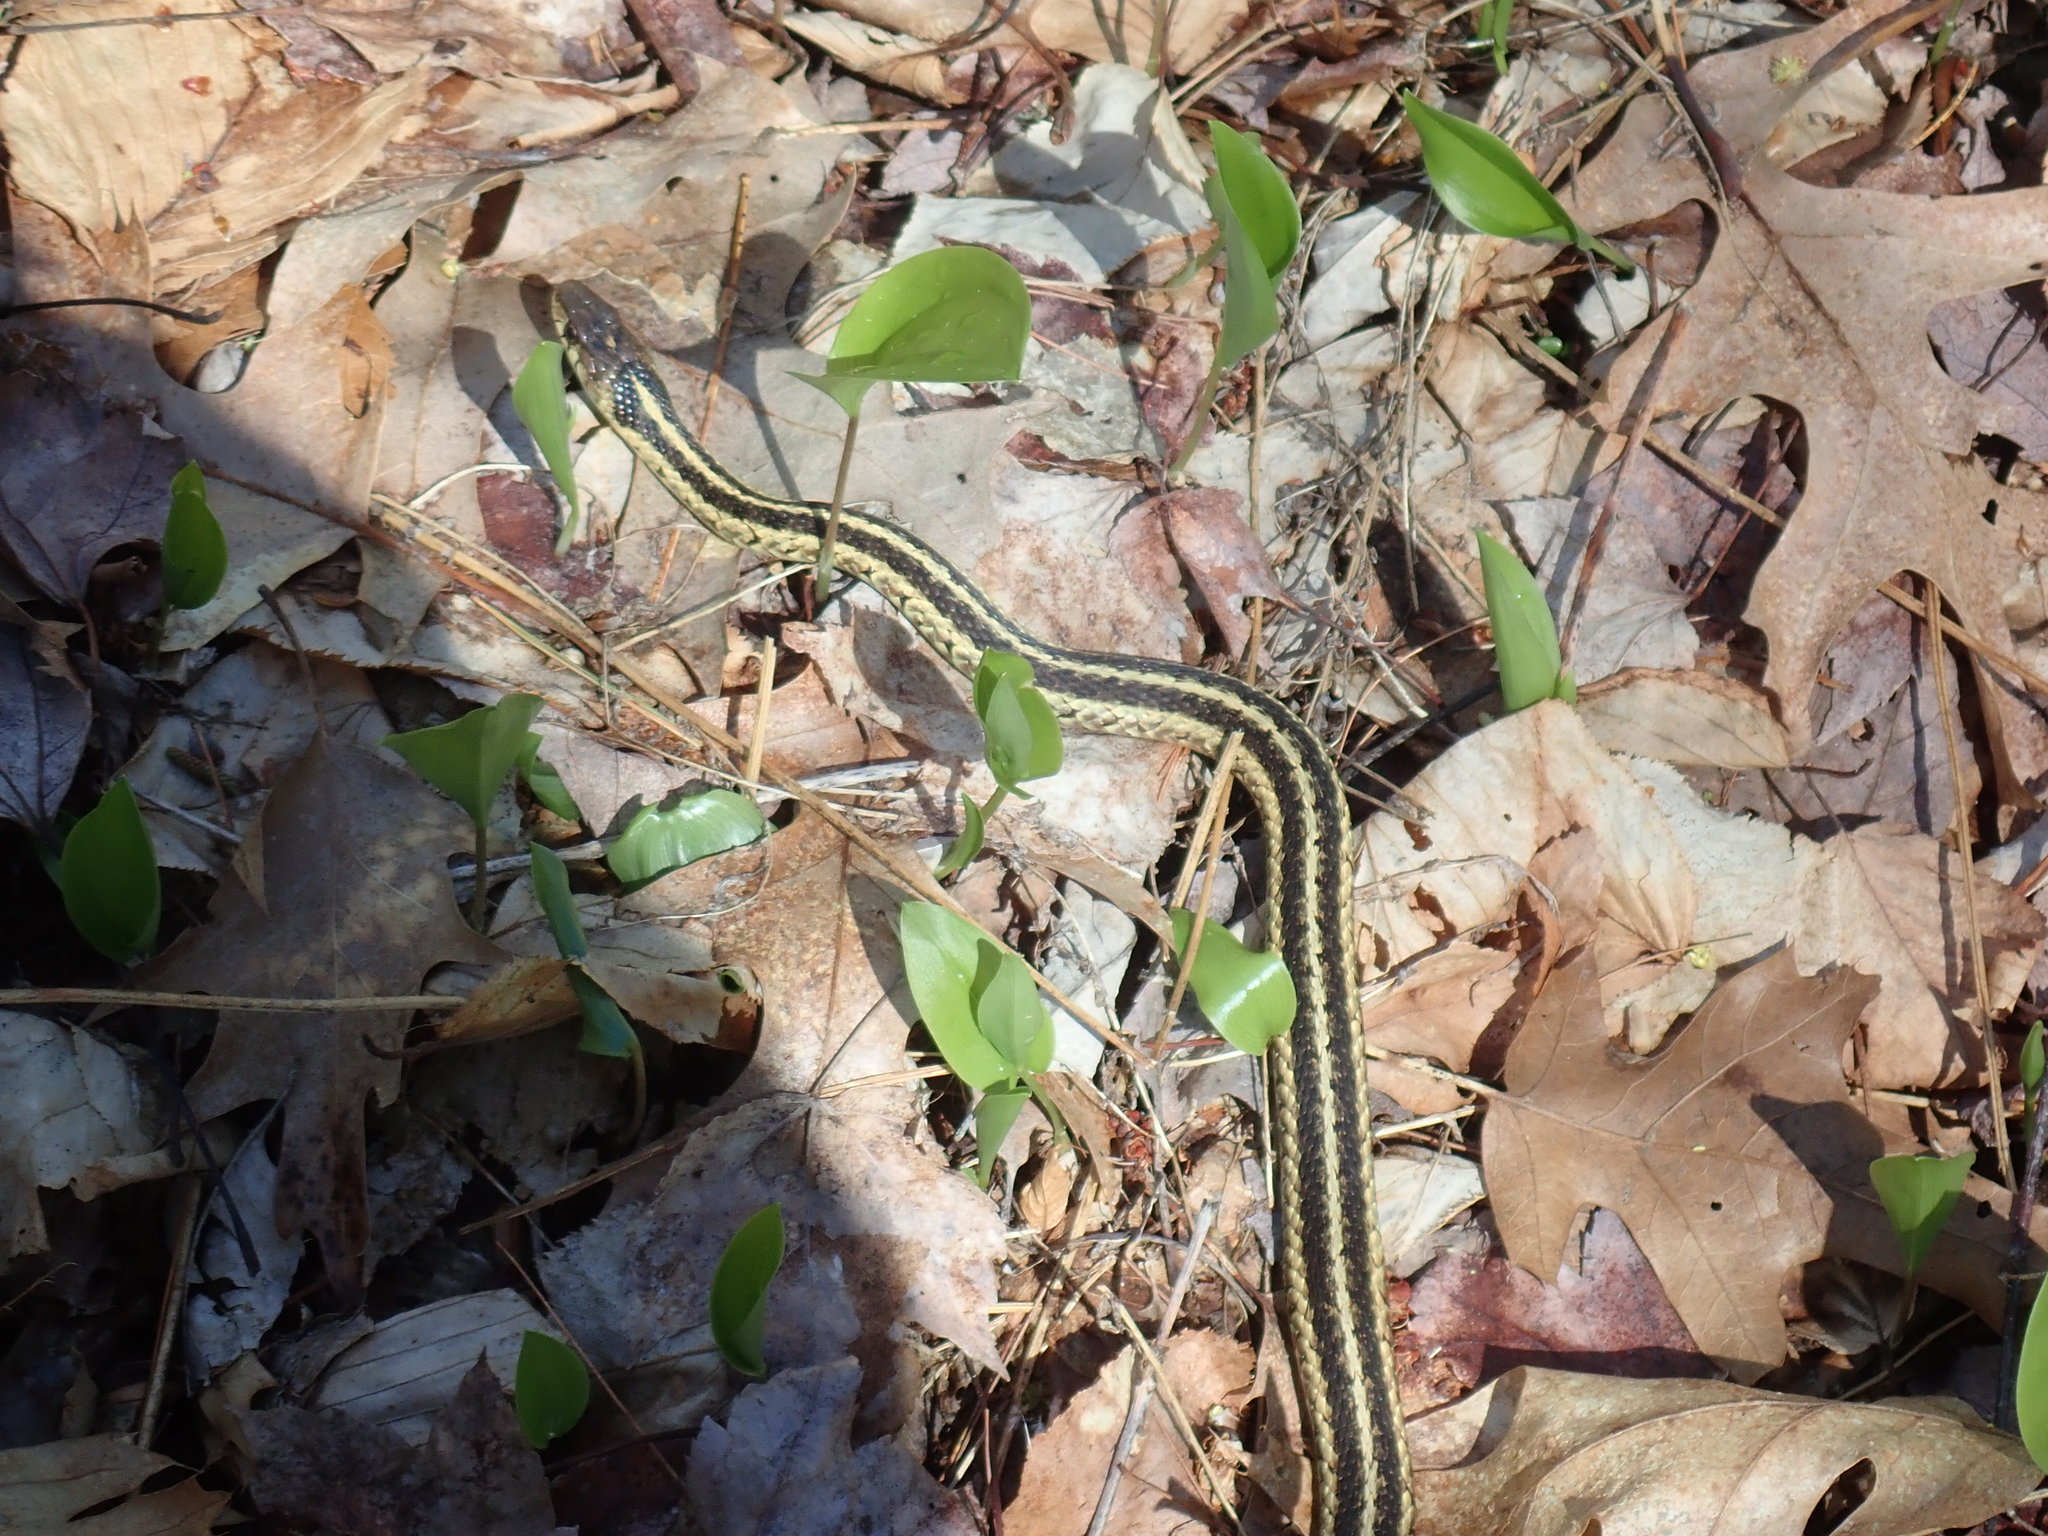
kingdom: Animalia
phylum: Chordata
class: Squamata
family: Colubridae
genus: Thamnophis
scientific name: Thamnophis sirtalis
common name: Common garter snake
